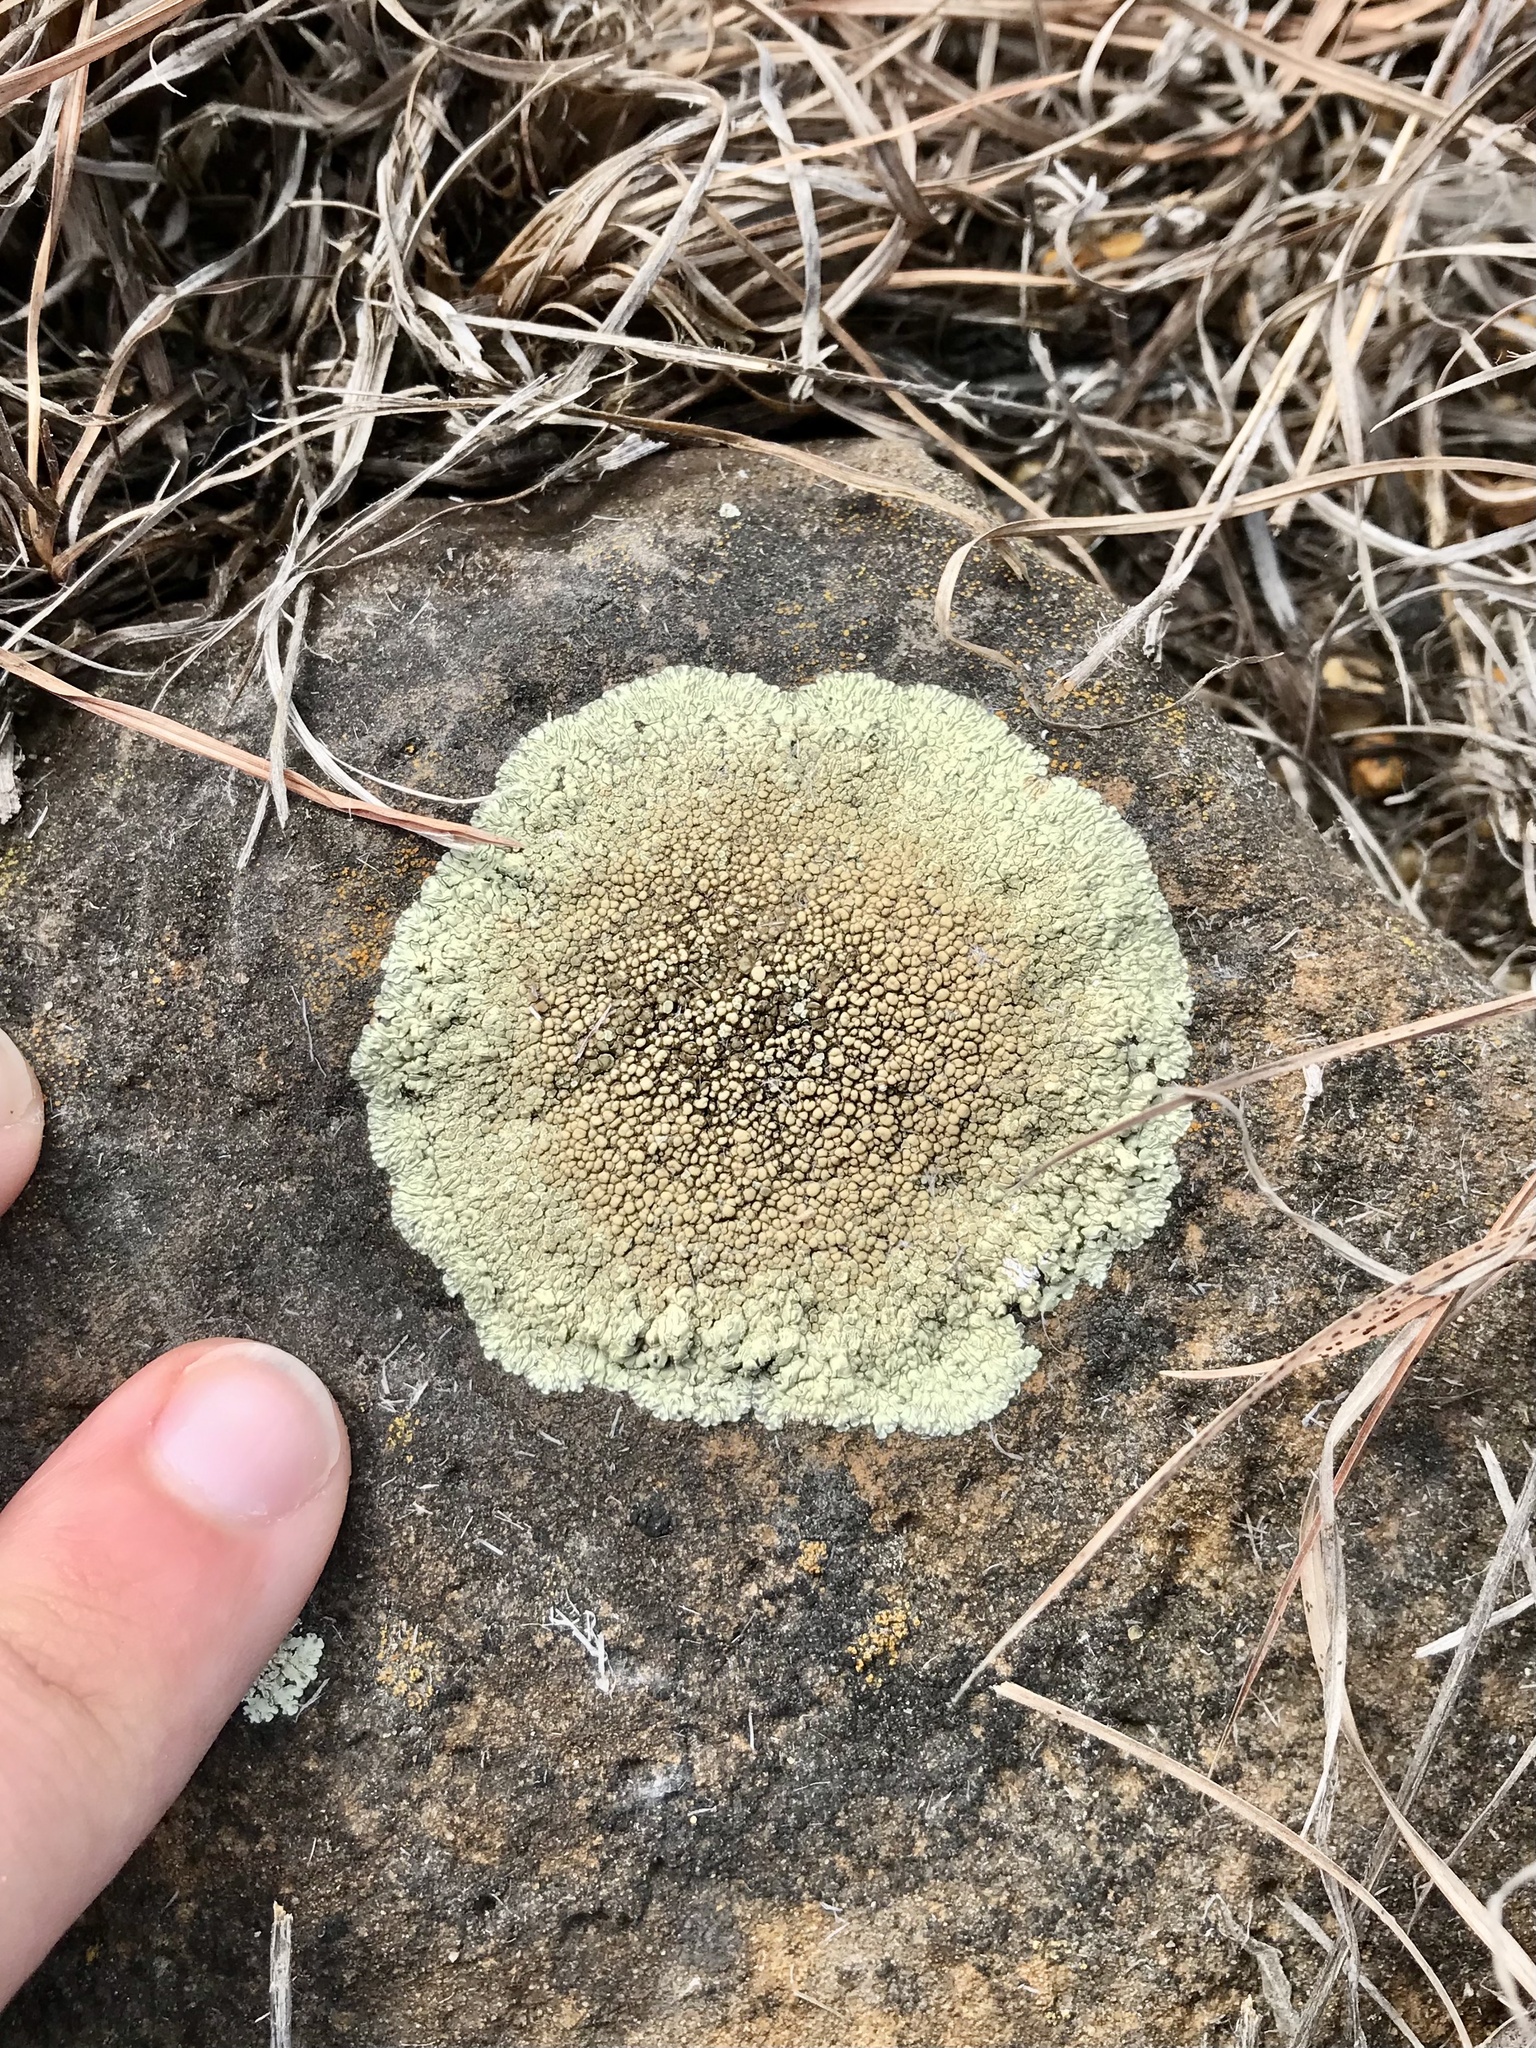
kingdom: Fungi
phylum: Ascomycota
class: Lecanoromycetes
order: Lecanorales
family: Lecanoraceae
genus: Protoparmeliopsis
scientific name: Protoparmeliopsis muralis
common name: Stonewall rim lichen
